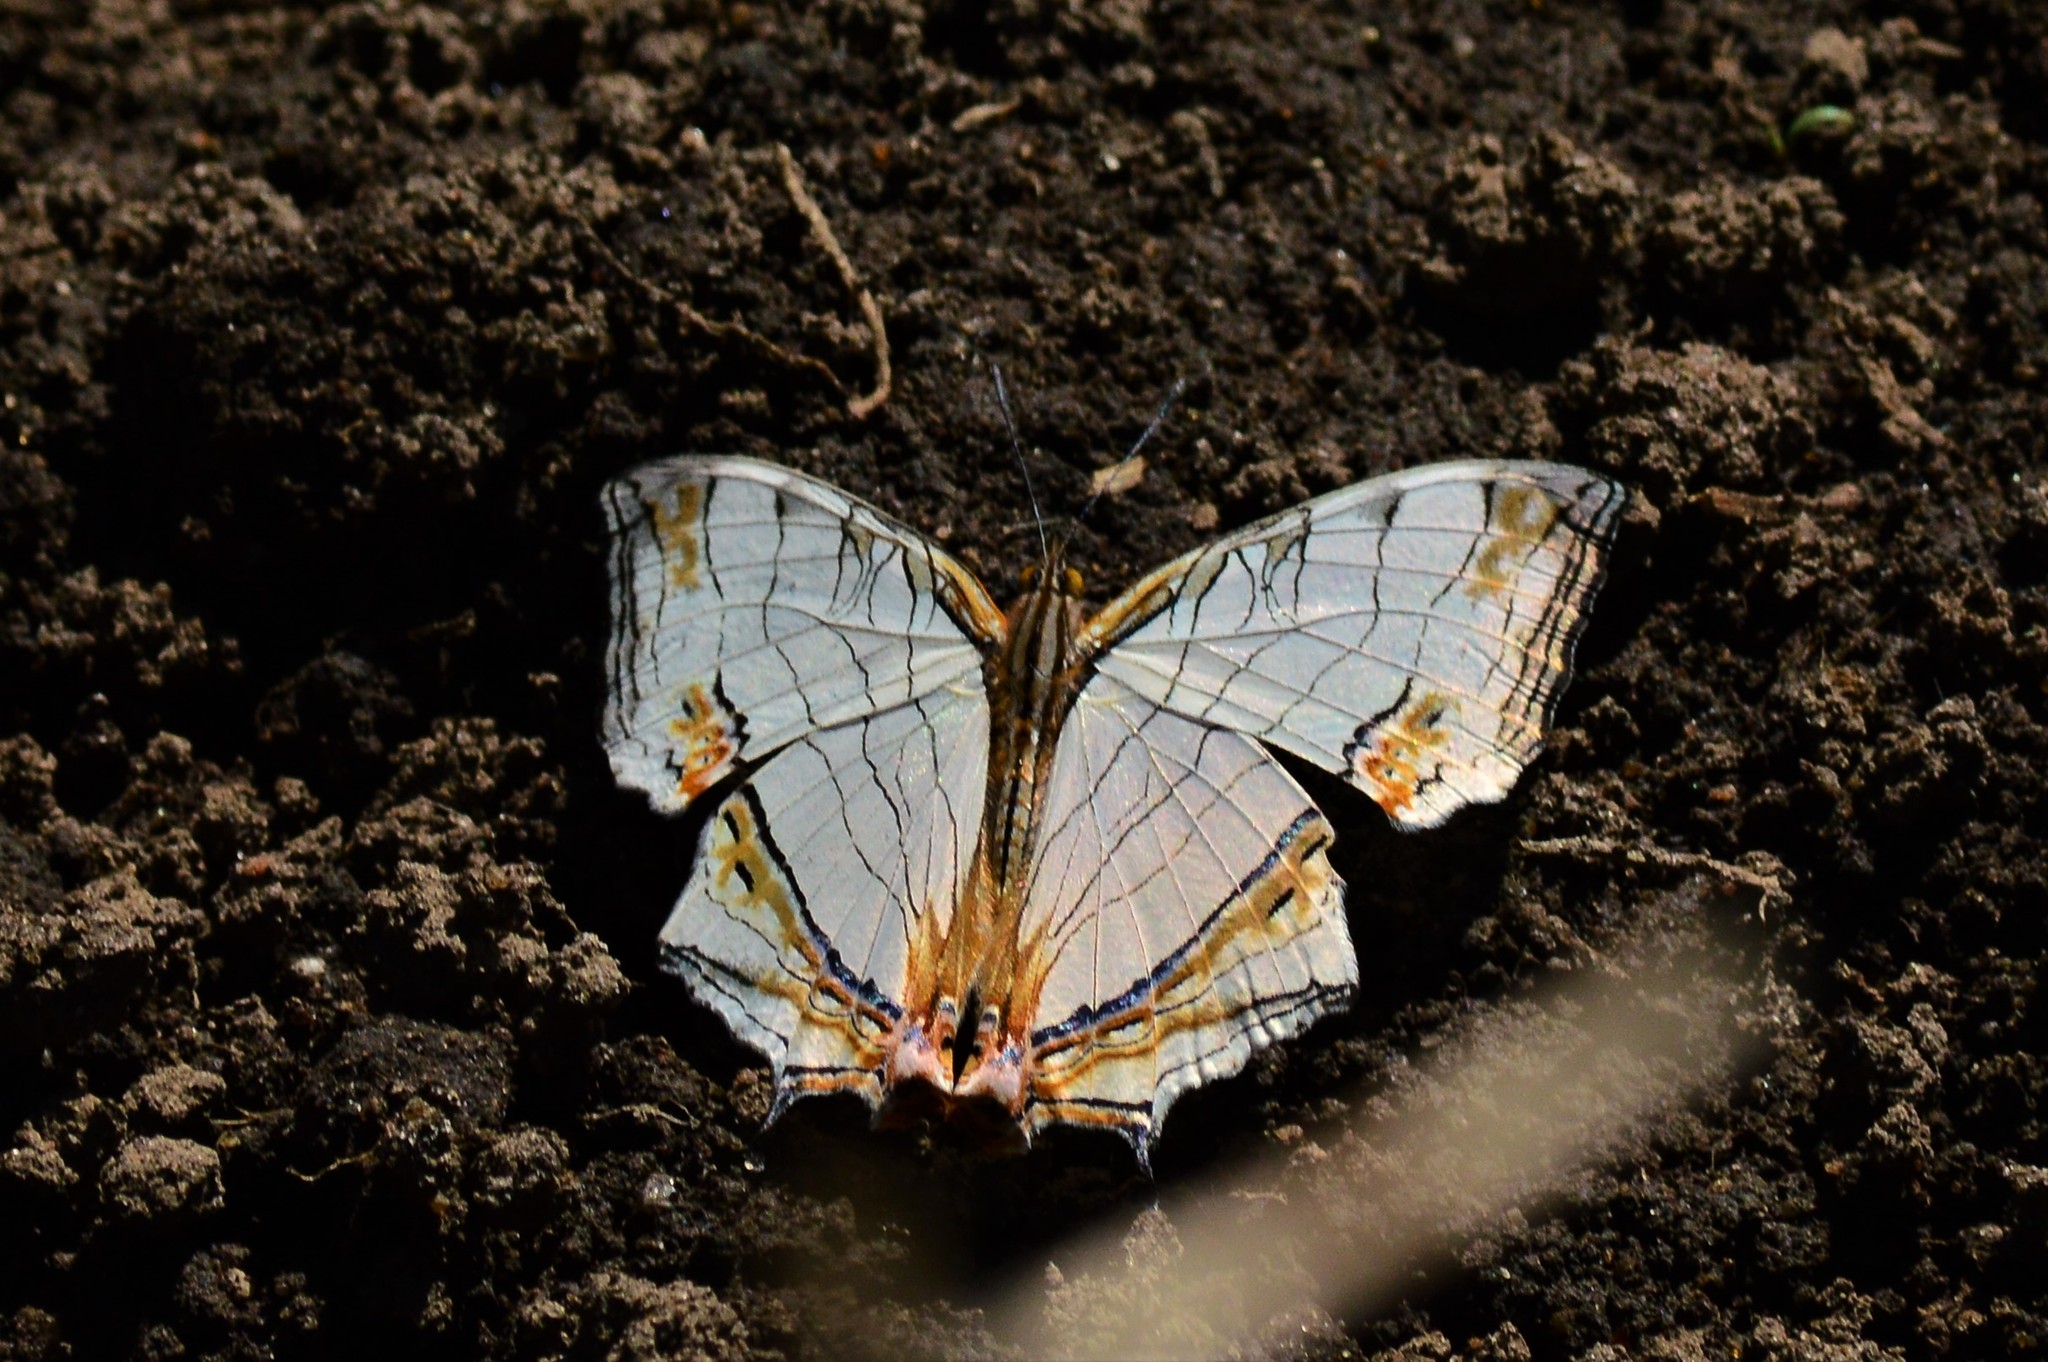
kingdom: Animalia
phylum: Arthropoda
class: Insecta
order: Lepidoptera
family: Nymphalidae
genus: Cyrestis
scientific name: Cyrestis thyodamas
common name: Common mapwing
